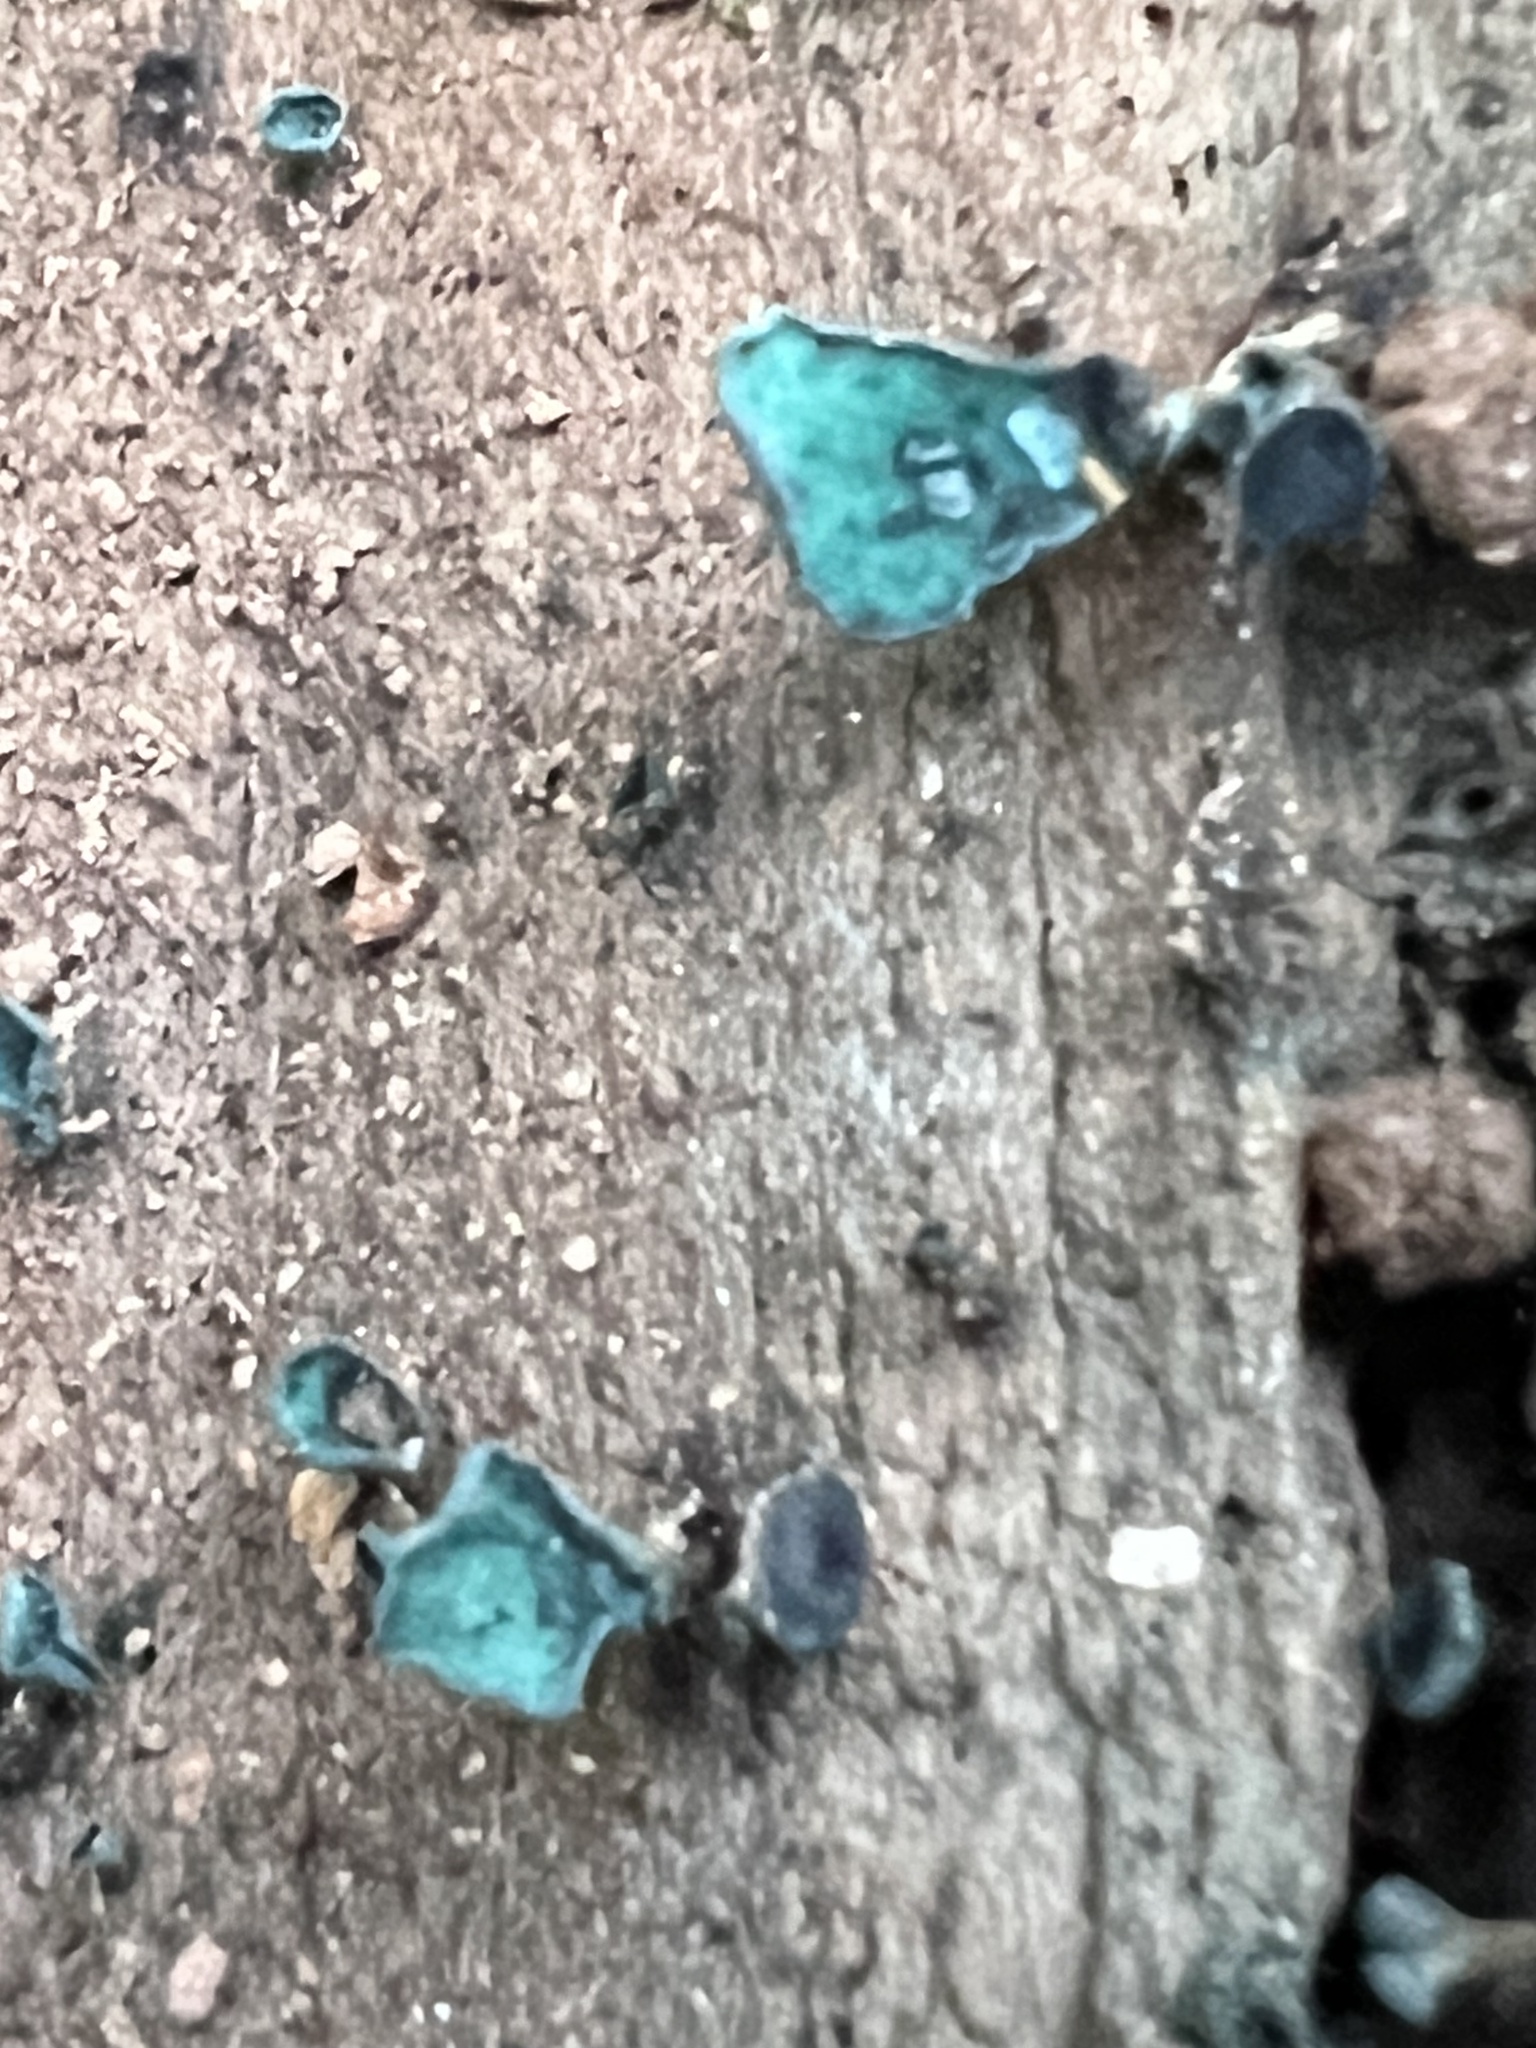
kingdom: Fungi
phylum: Ascomycota
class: Leotiomycetes
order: Helotiales
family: Chlorociboriaceae
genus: Chlorociboria
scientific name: Chlorociboria aeruginascens
